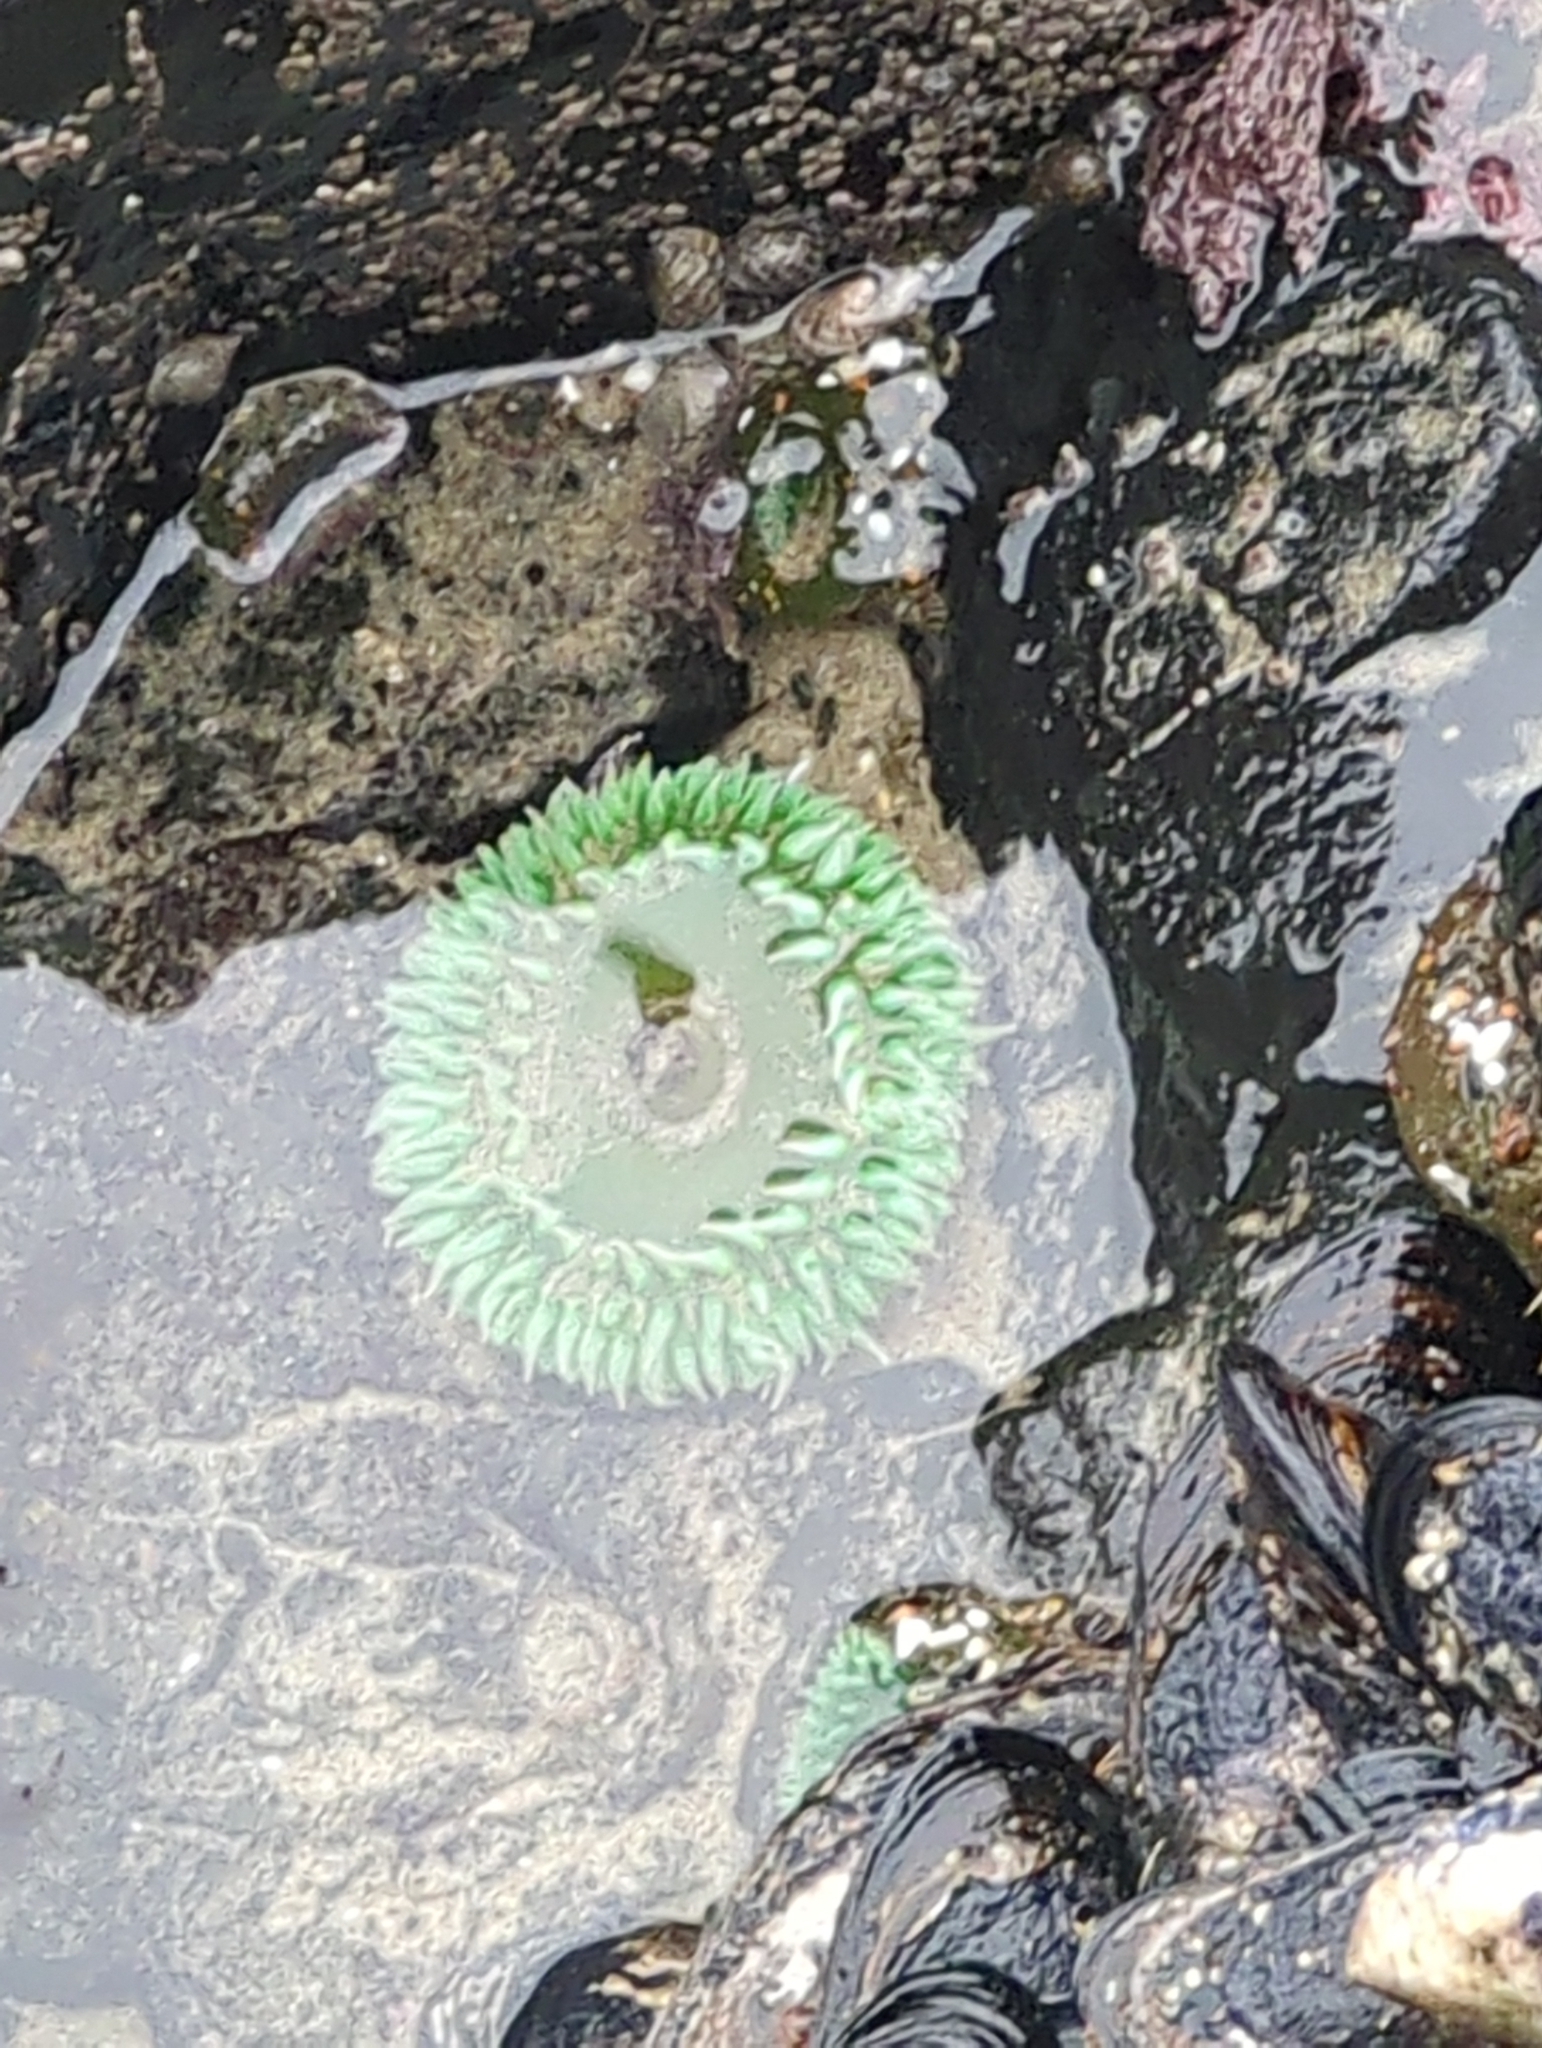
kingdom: Animalia
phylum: Cnidaria
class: Anthozoa
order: Actiniaria
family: Actiniidae
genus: Anthopleura
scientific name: Anthopleura xanthogrammica
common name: Giant green anemone
